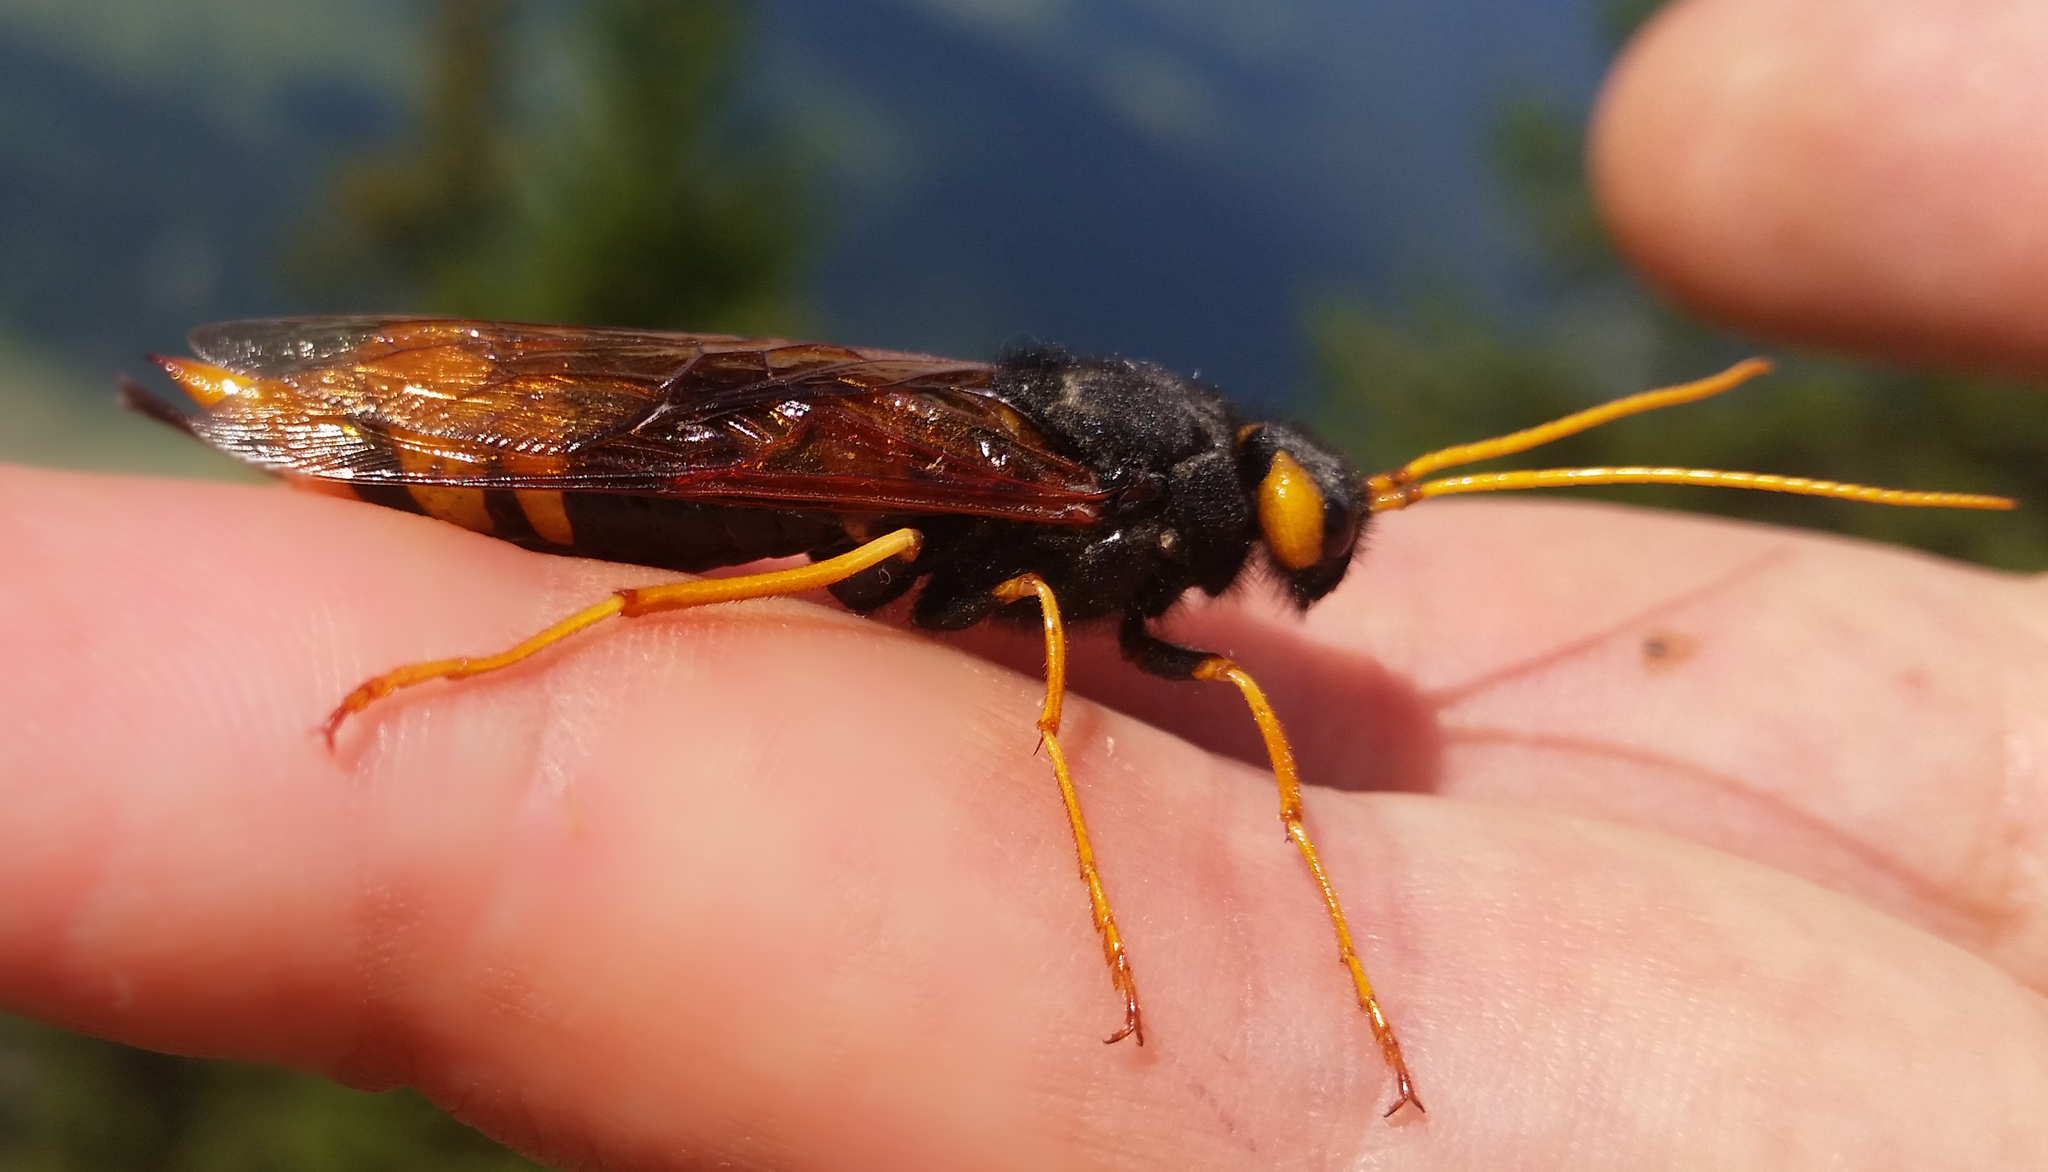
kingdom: Animalia
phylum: Arthropoda
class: Insecta
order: Hymenoptera
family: Siricidae
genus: Urocerus
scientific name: Urocerus gigas
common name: Giant woodwasp
